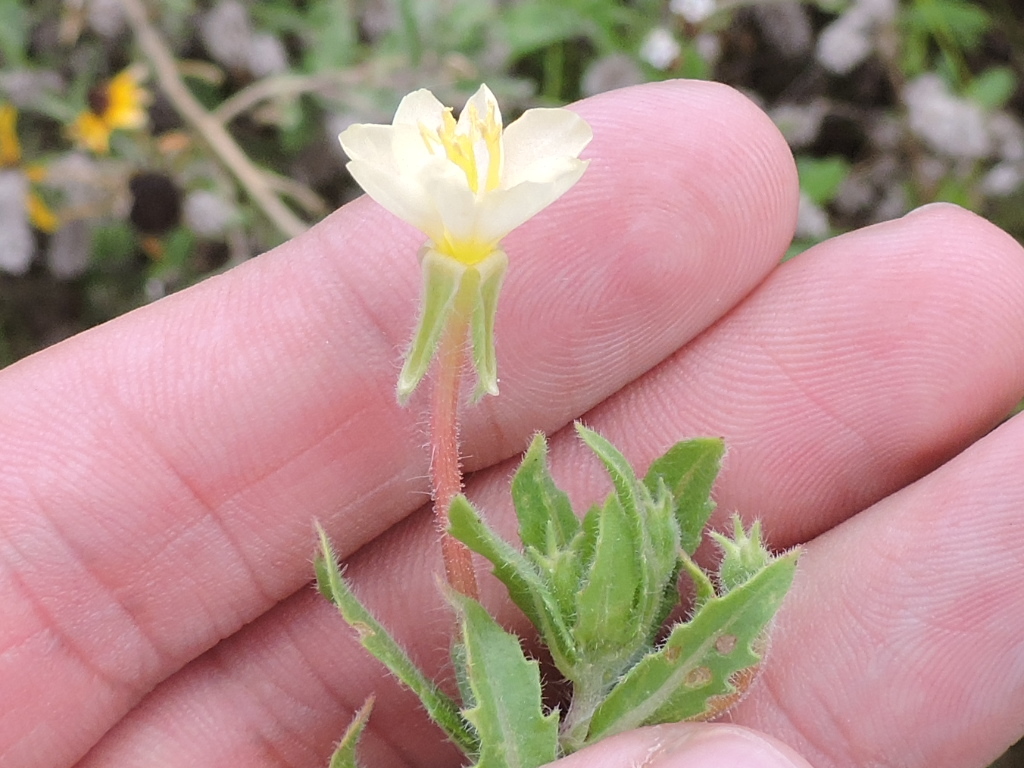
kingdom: Plantae
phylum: Tracheophyta
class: Magnoliopsida
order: Myrtales
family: Onagraceae
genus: Oenothera
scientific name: Oenothera laciniata
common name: Cut-leaved evening-primrose
